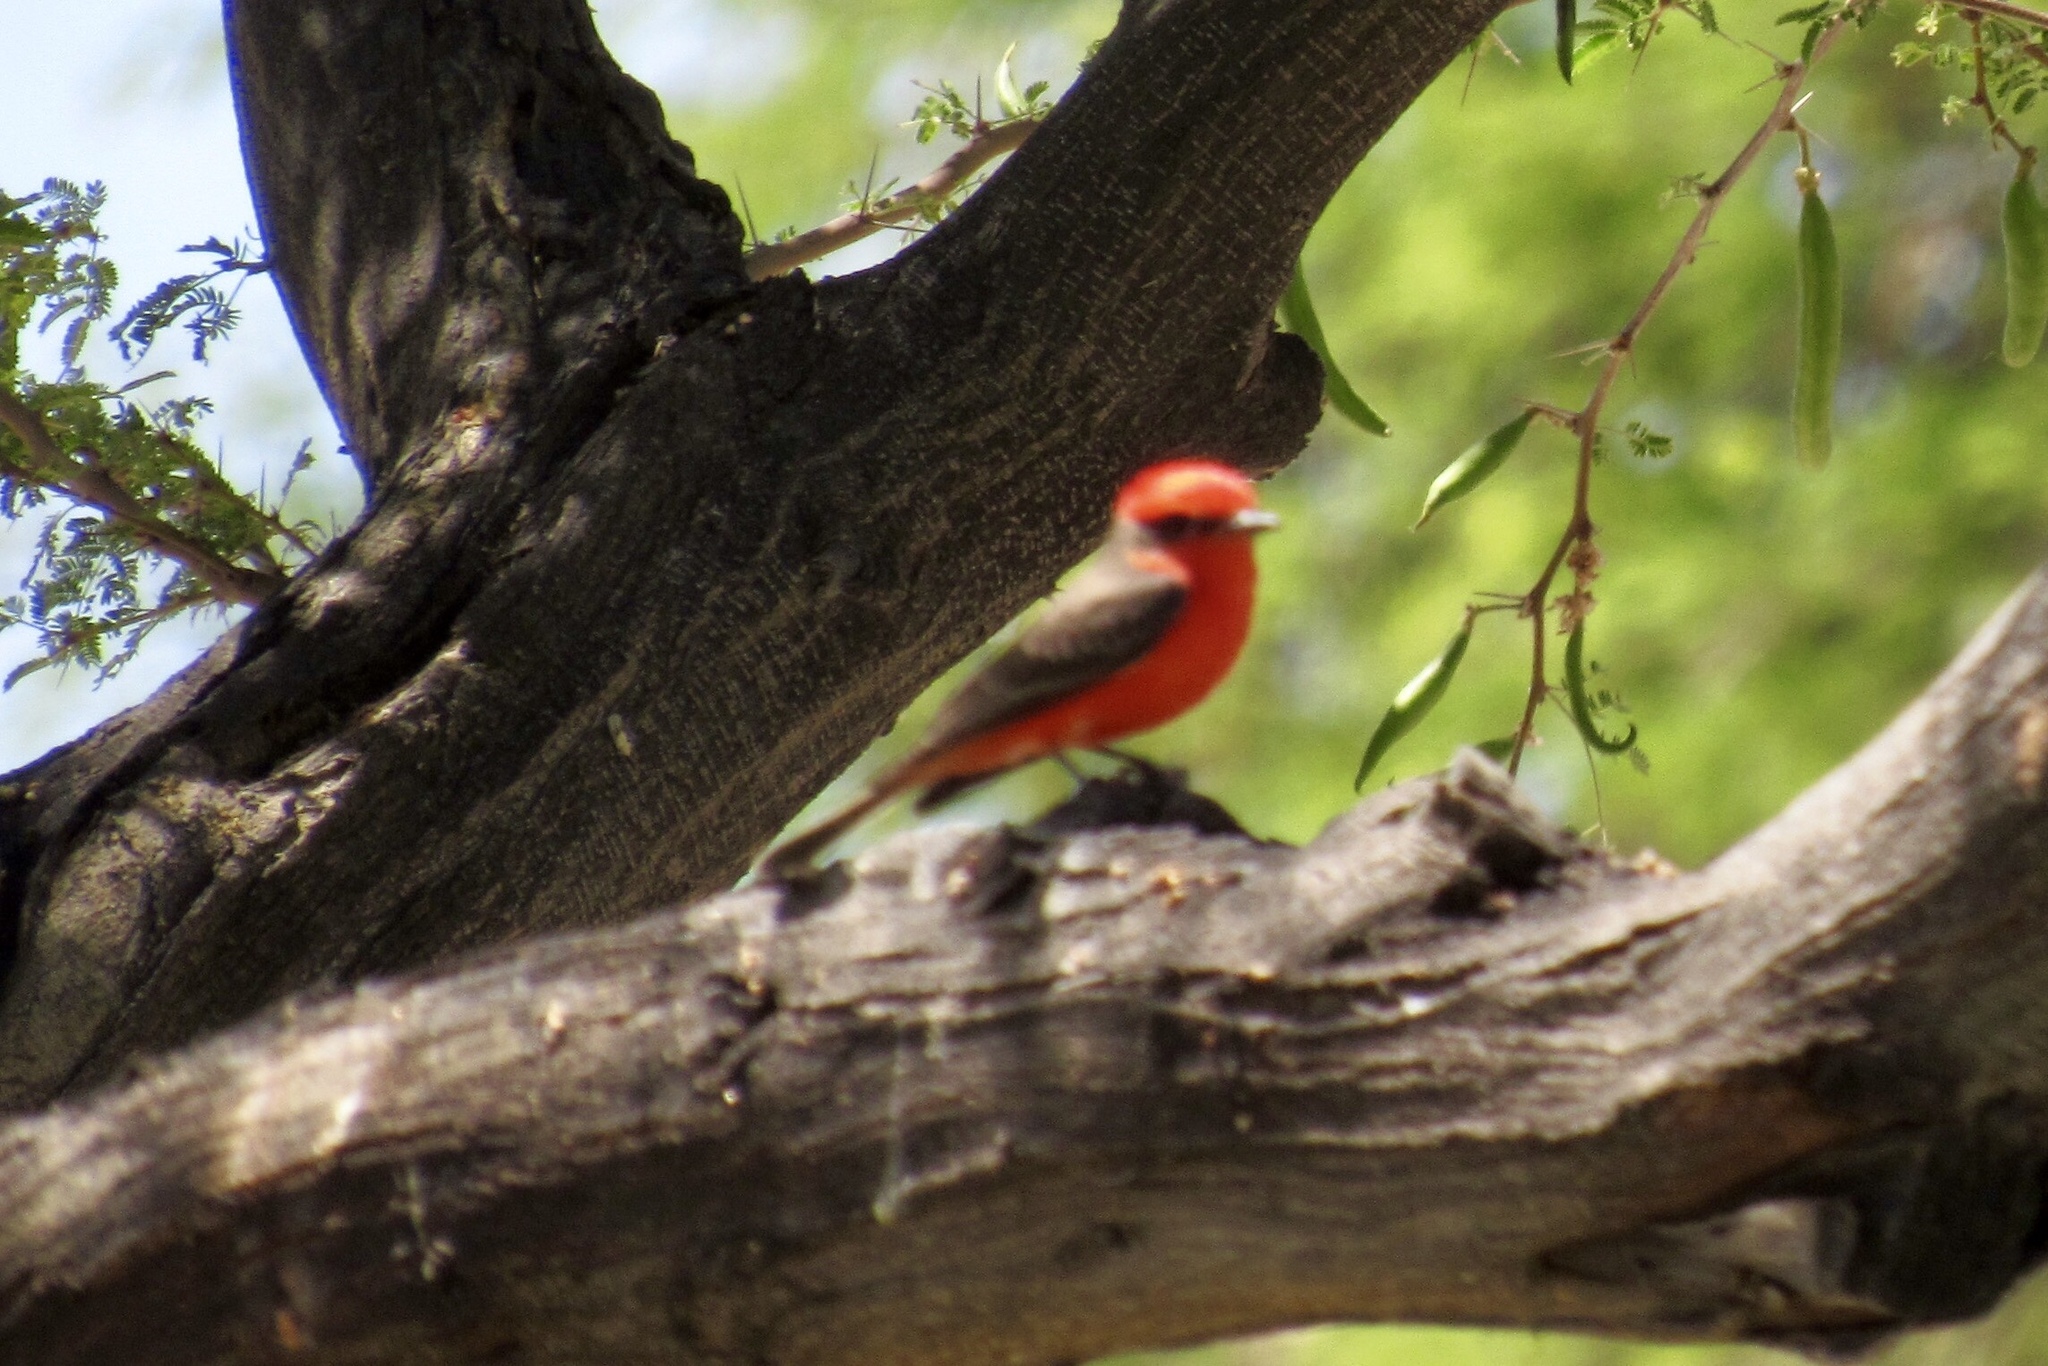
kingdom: Animalia
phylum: Chordata
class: Aves
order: Passeriformes
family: Tyrannidae
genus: Pyrocephalus
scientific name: Pyrocephalus rubinus
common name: Vermilion flycatcher
